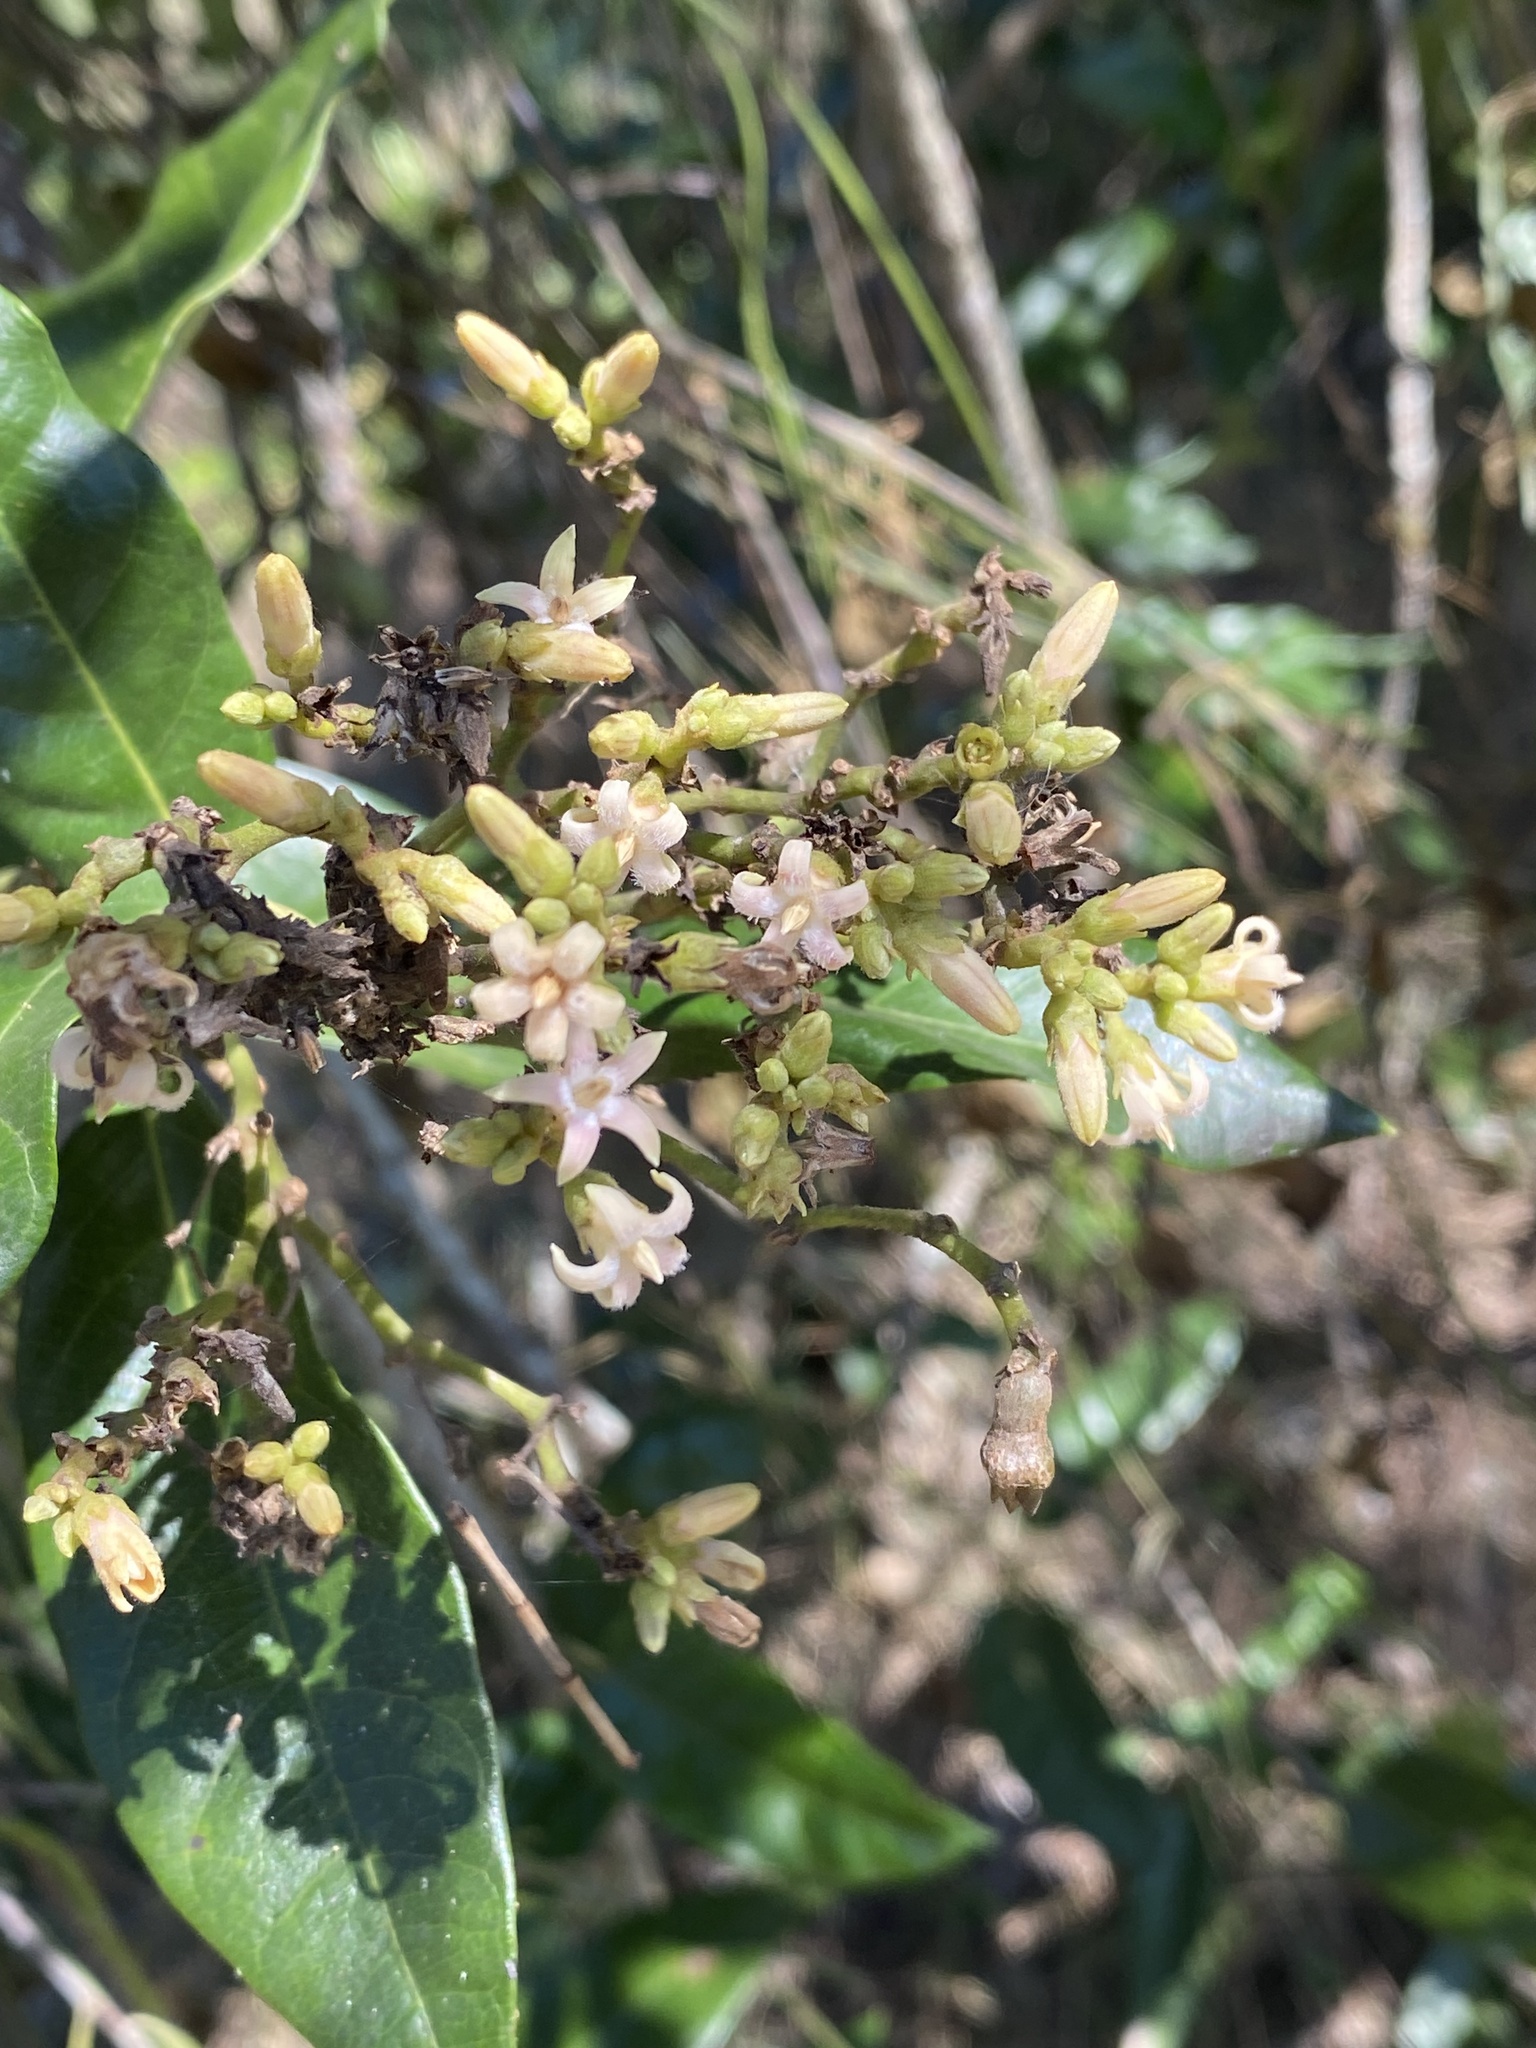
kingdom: Plantae
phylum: Tracheophyta
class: Magnoliopsida
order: Gentianales
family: Apocynaceae
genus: Parsonsia
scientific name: Parsonsia straminea
